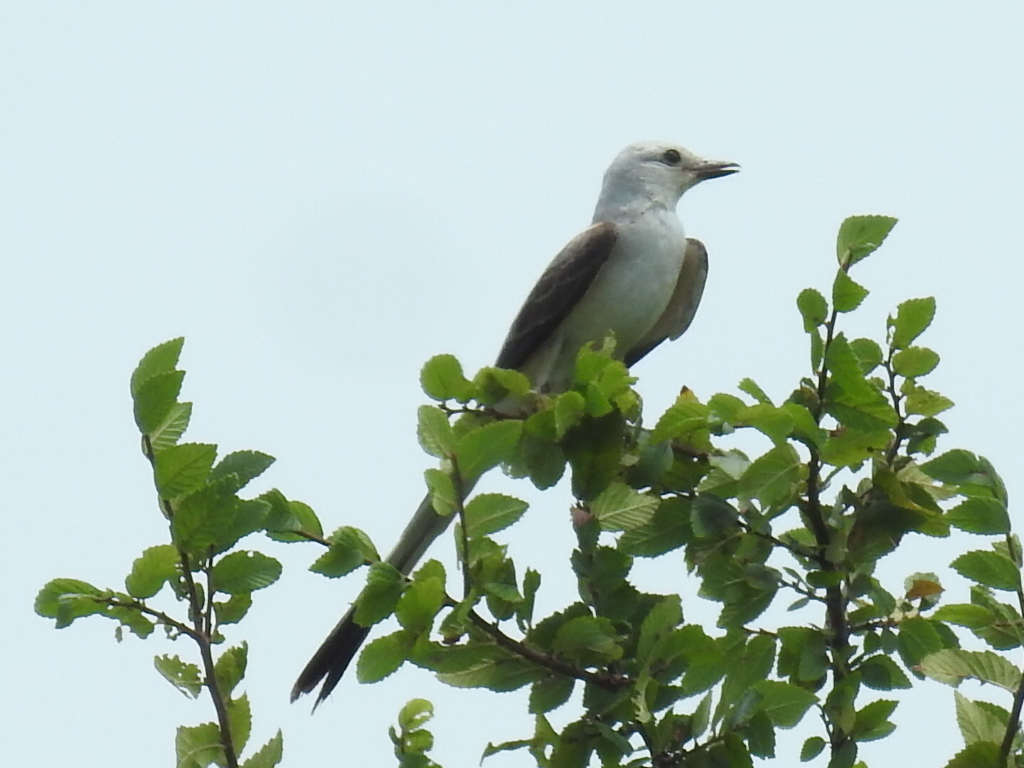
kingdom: Animalia
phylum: Chordata
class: Aves
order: Passeriformes
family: Tyrannidae
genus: Tyrannus
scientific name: Tyrannus forficatus
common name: Scissor-tailed flycatcher
